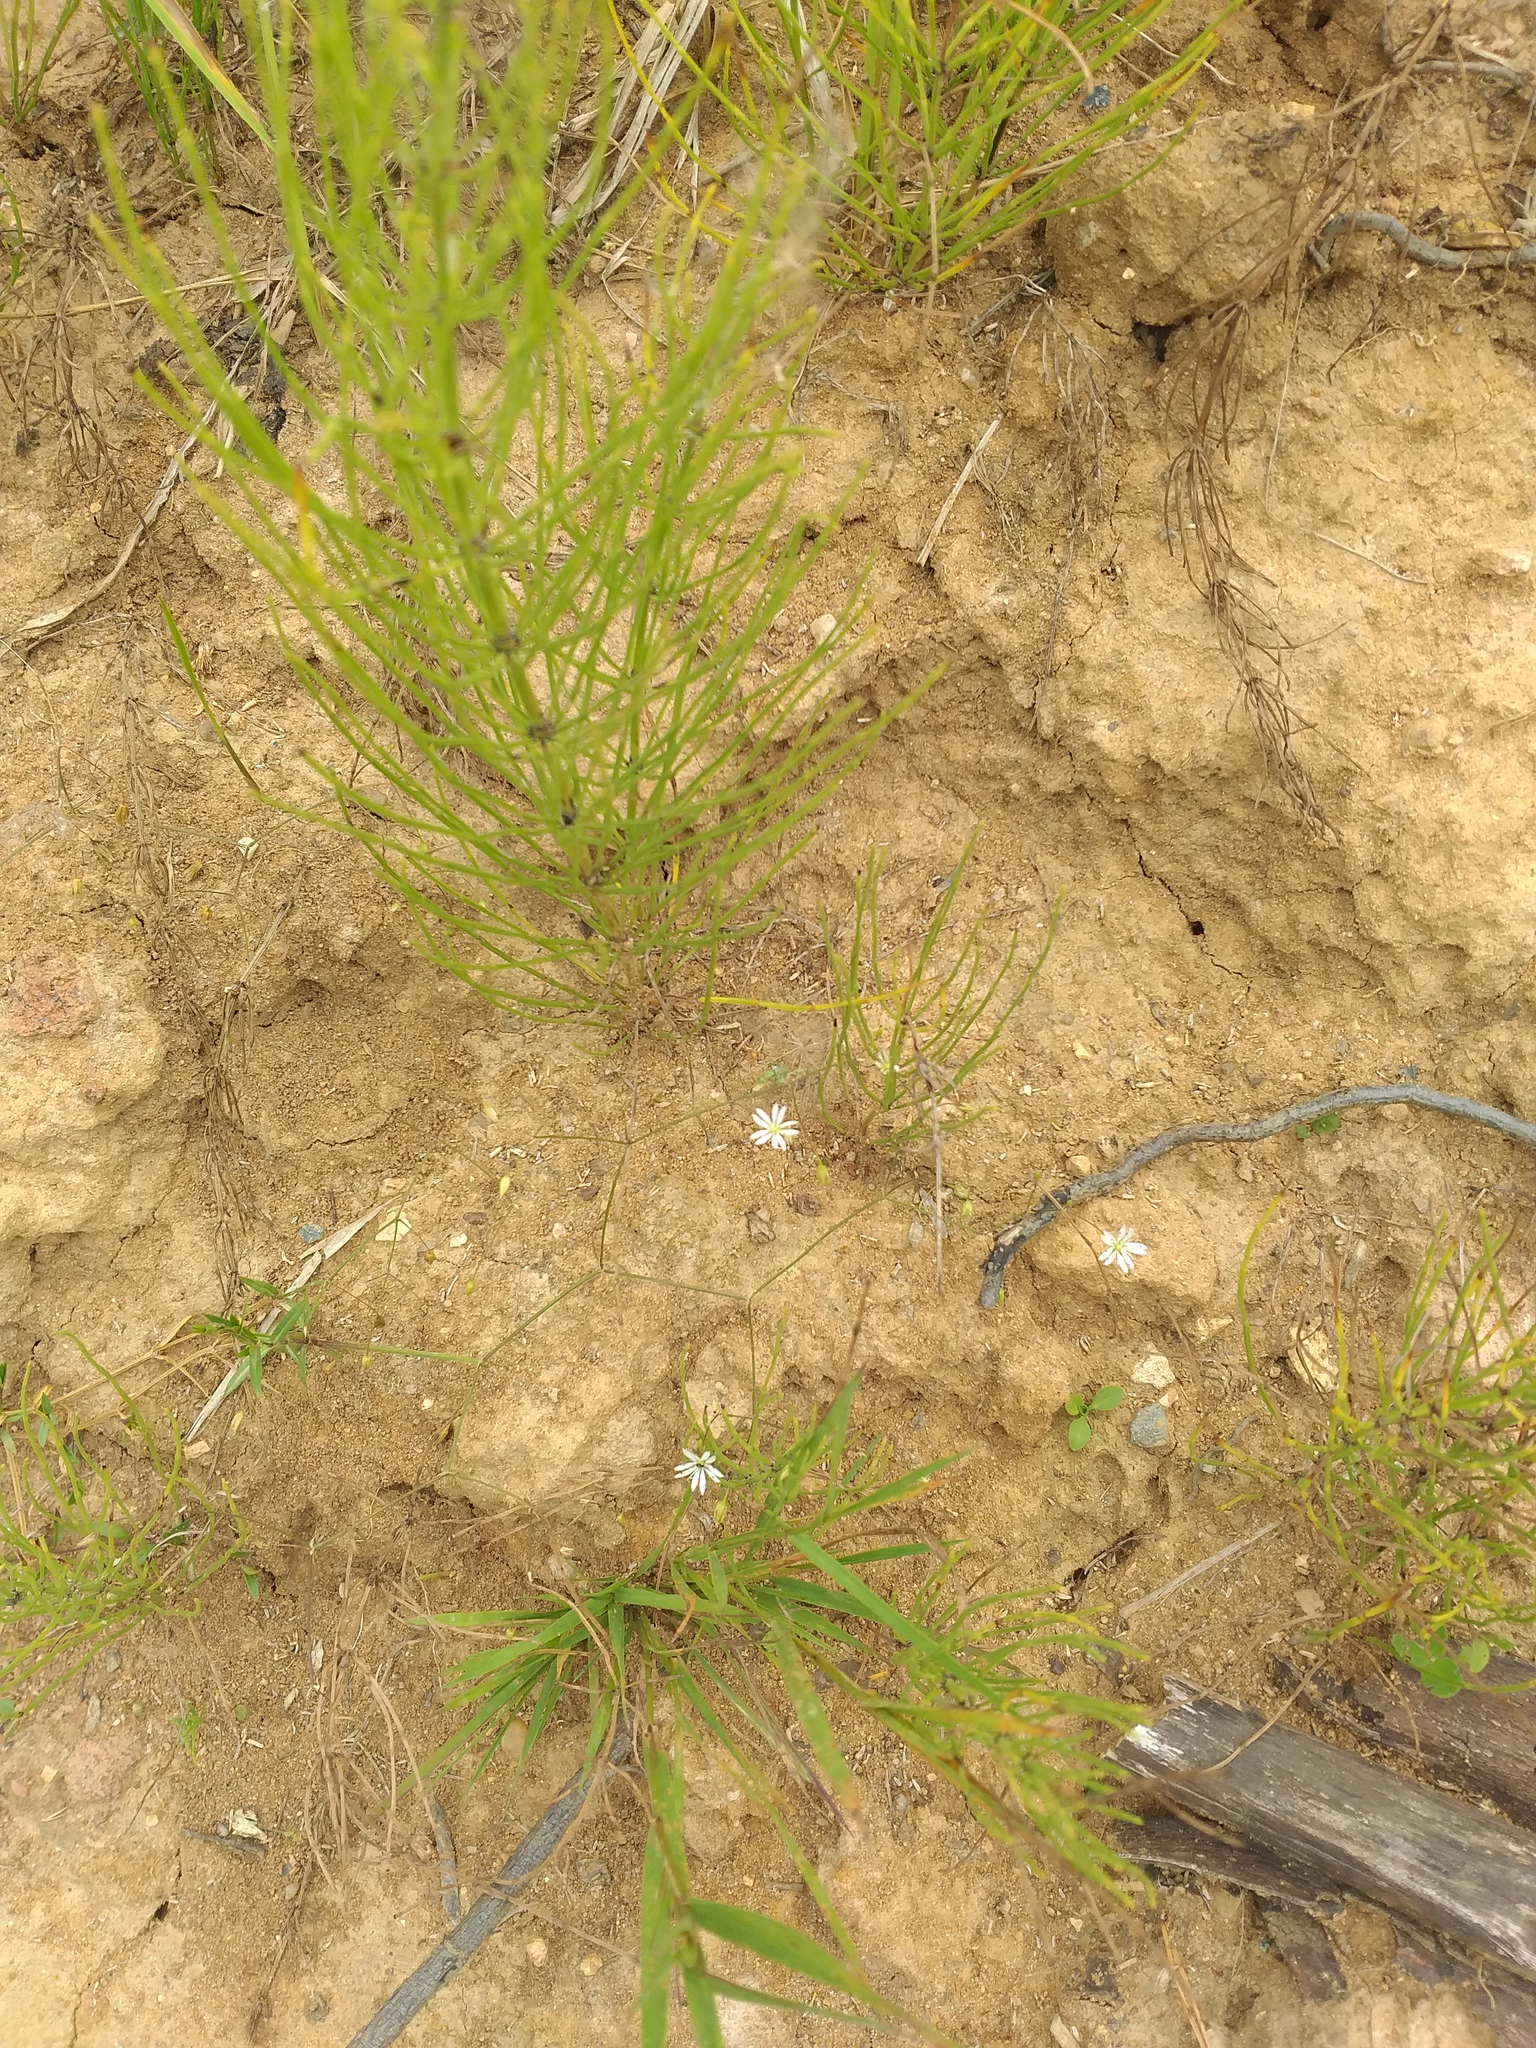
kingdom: Plantae
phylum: Tracheophyta
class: Magnoliopsida
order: Caryophyllales
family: Caryophyllaceae
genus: Stellaria
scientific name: Stellaria graminea
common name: Grass-like starwort
